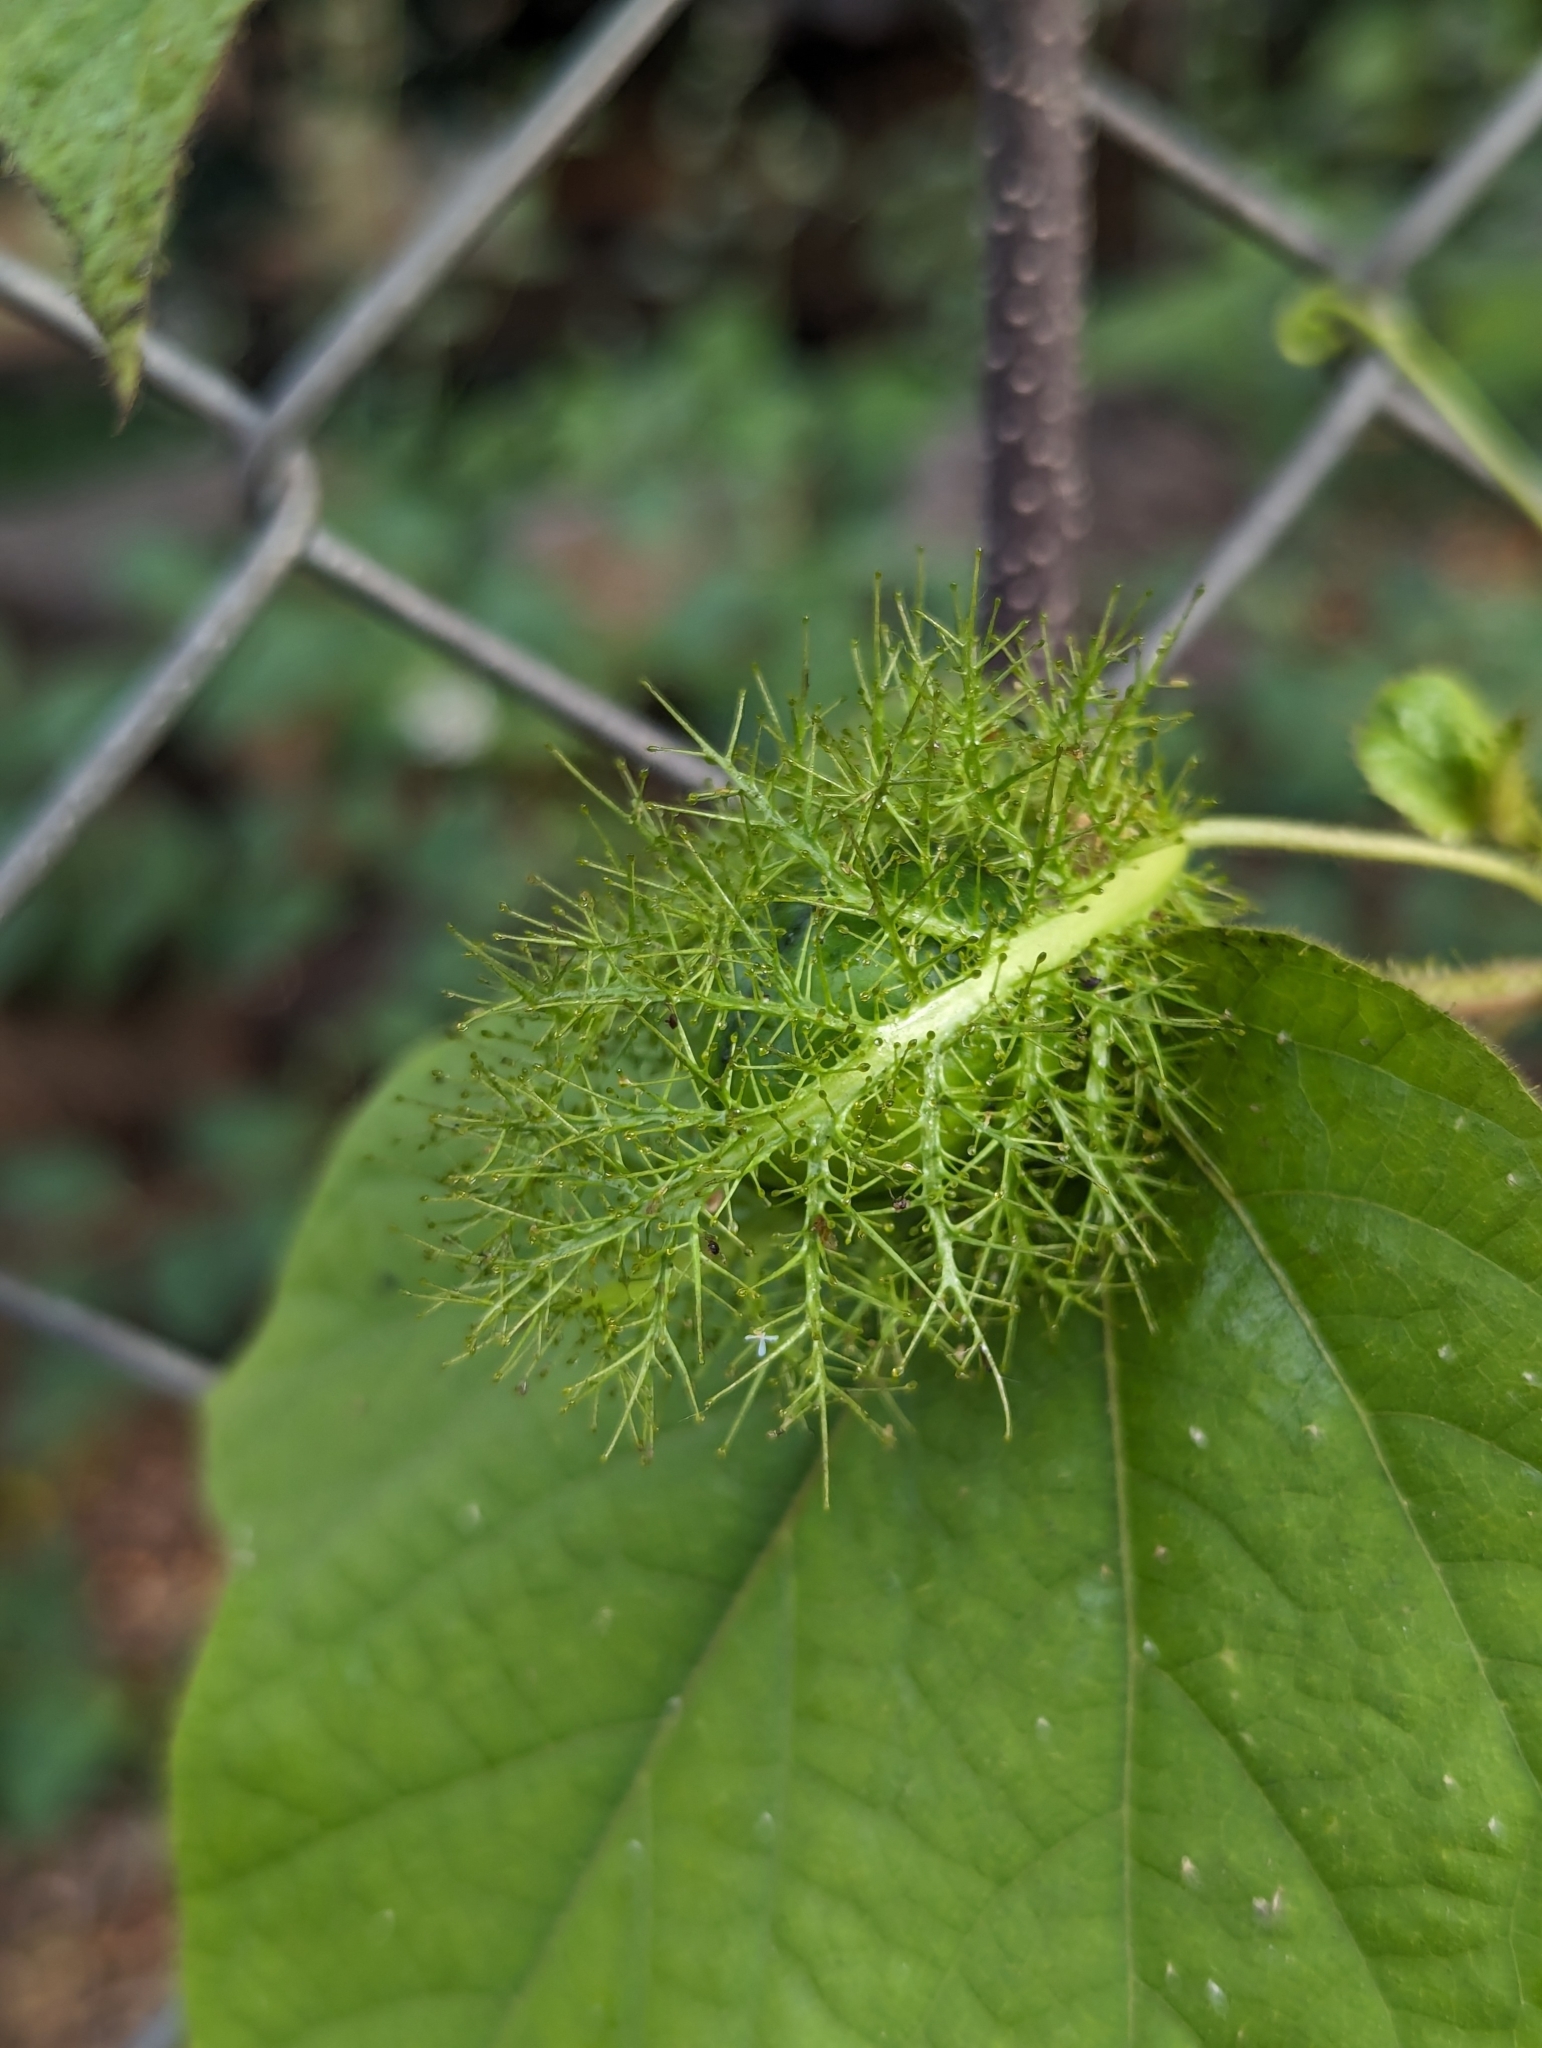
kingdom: Plantae
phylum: Tracheophyta
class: Magnoliopsida
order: Malpighiales
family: Passifloraceae
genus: Passiflora
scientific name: Passiflora vesicaria
